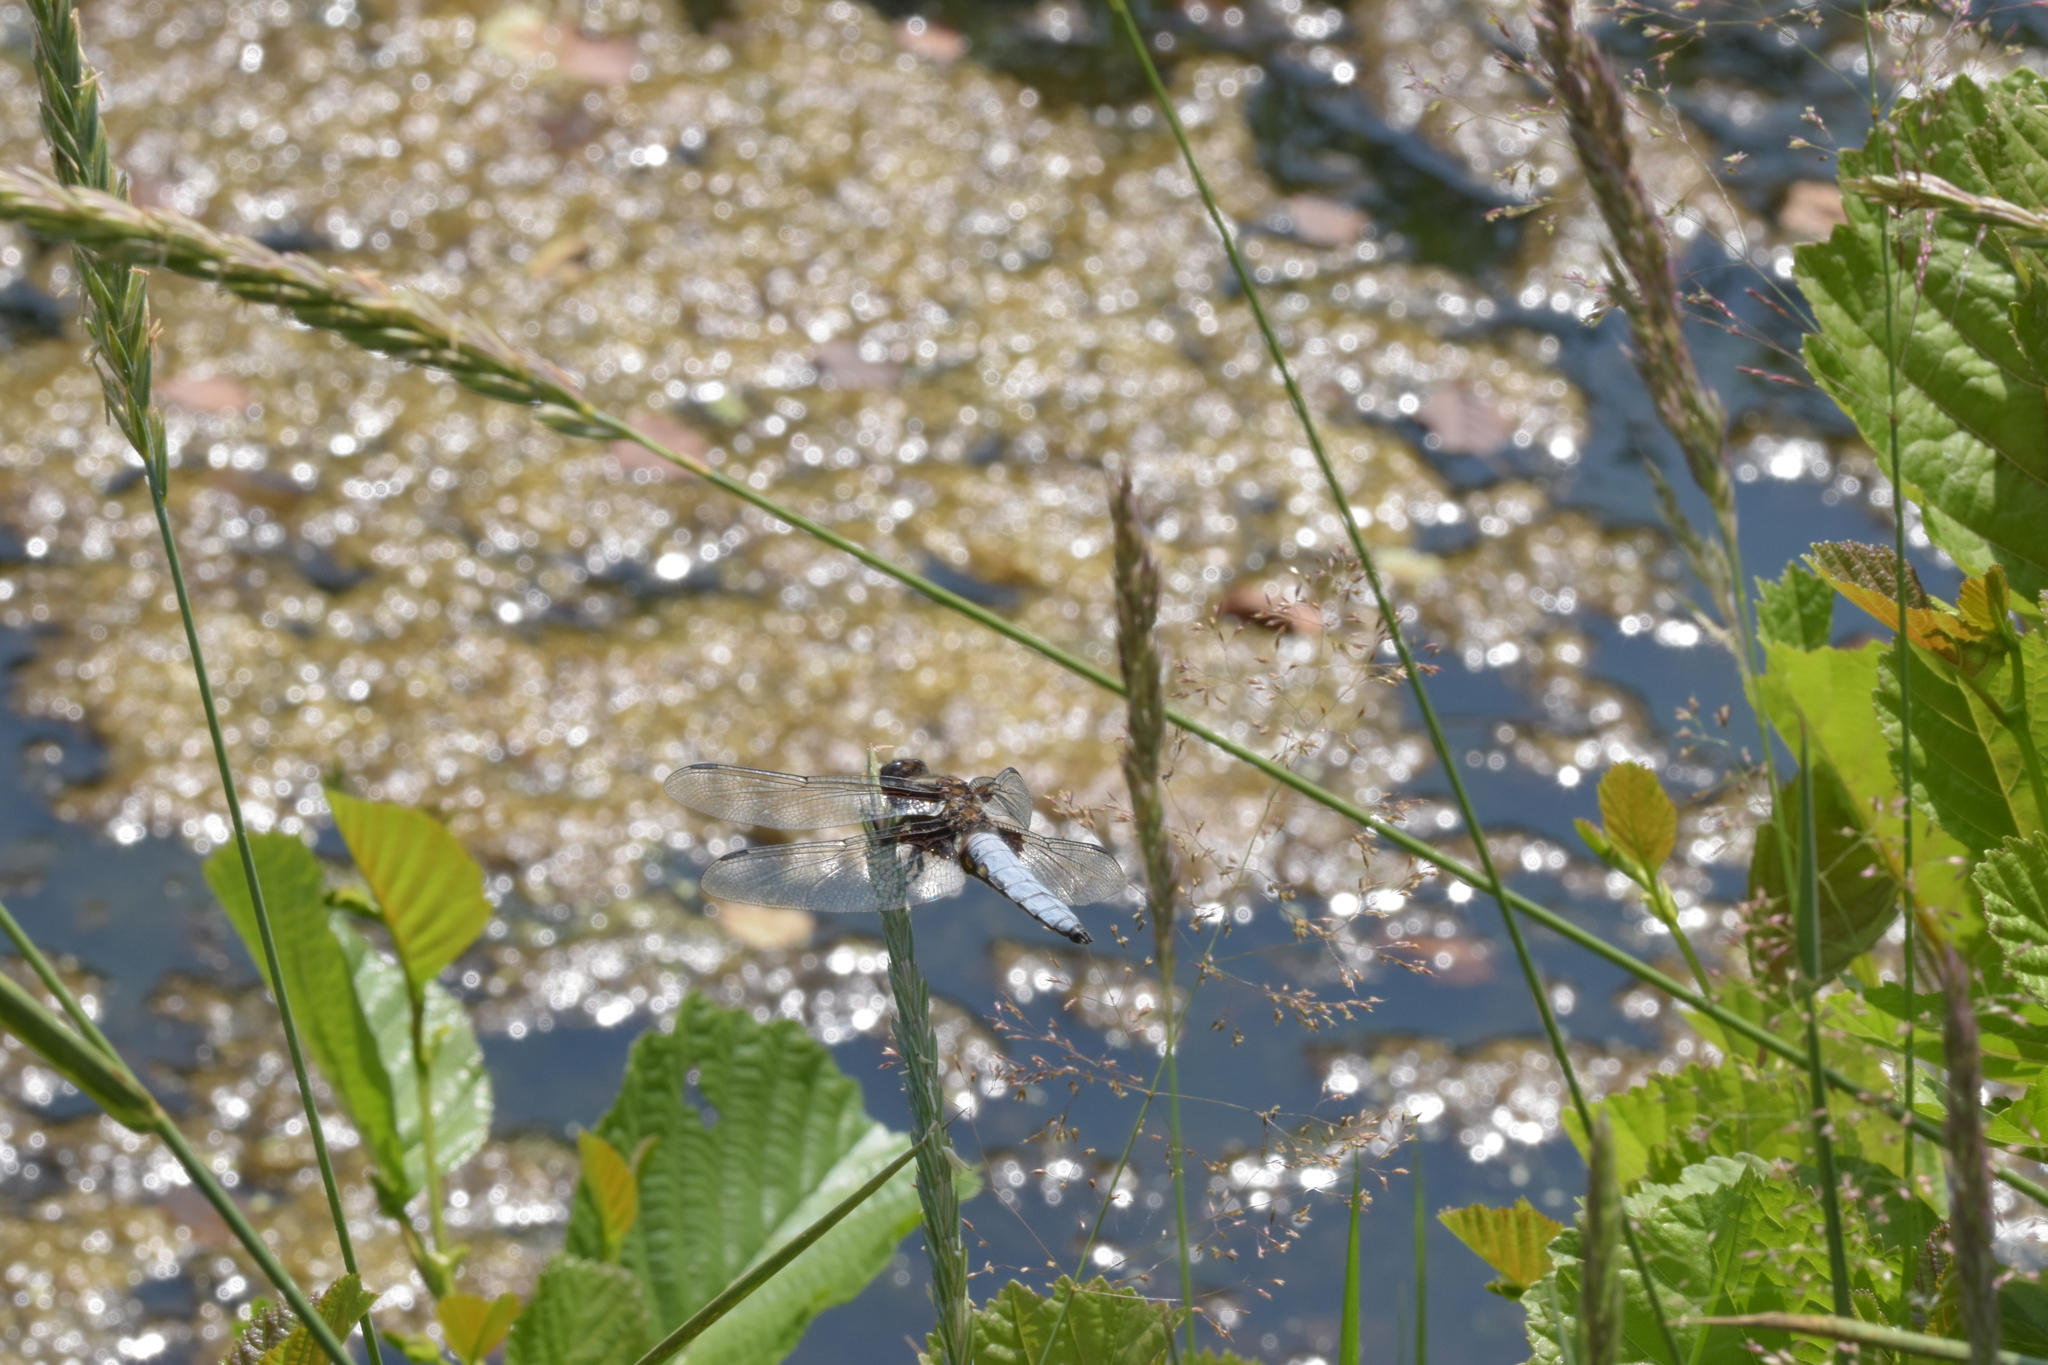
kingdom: Animalia
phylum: Arthropoda
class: Insecta
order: Odonata
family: Libellulidae
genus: Libellula
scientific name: Libellula depressa
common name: Broad-bodied chaser
